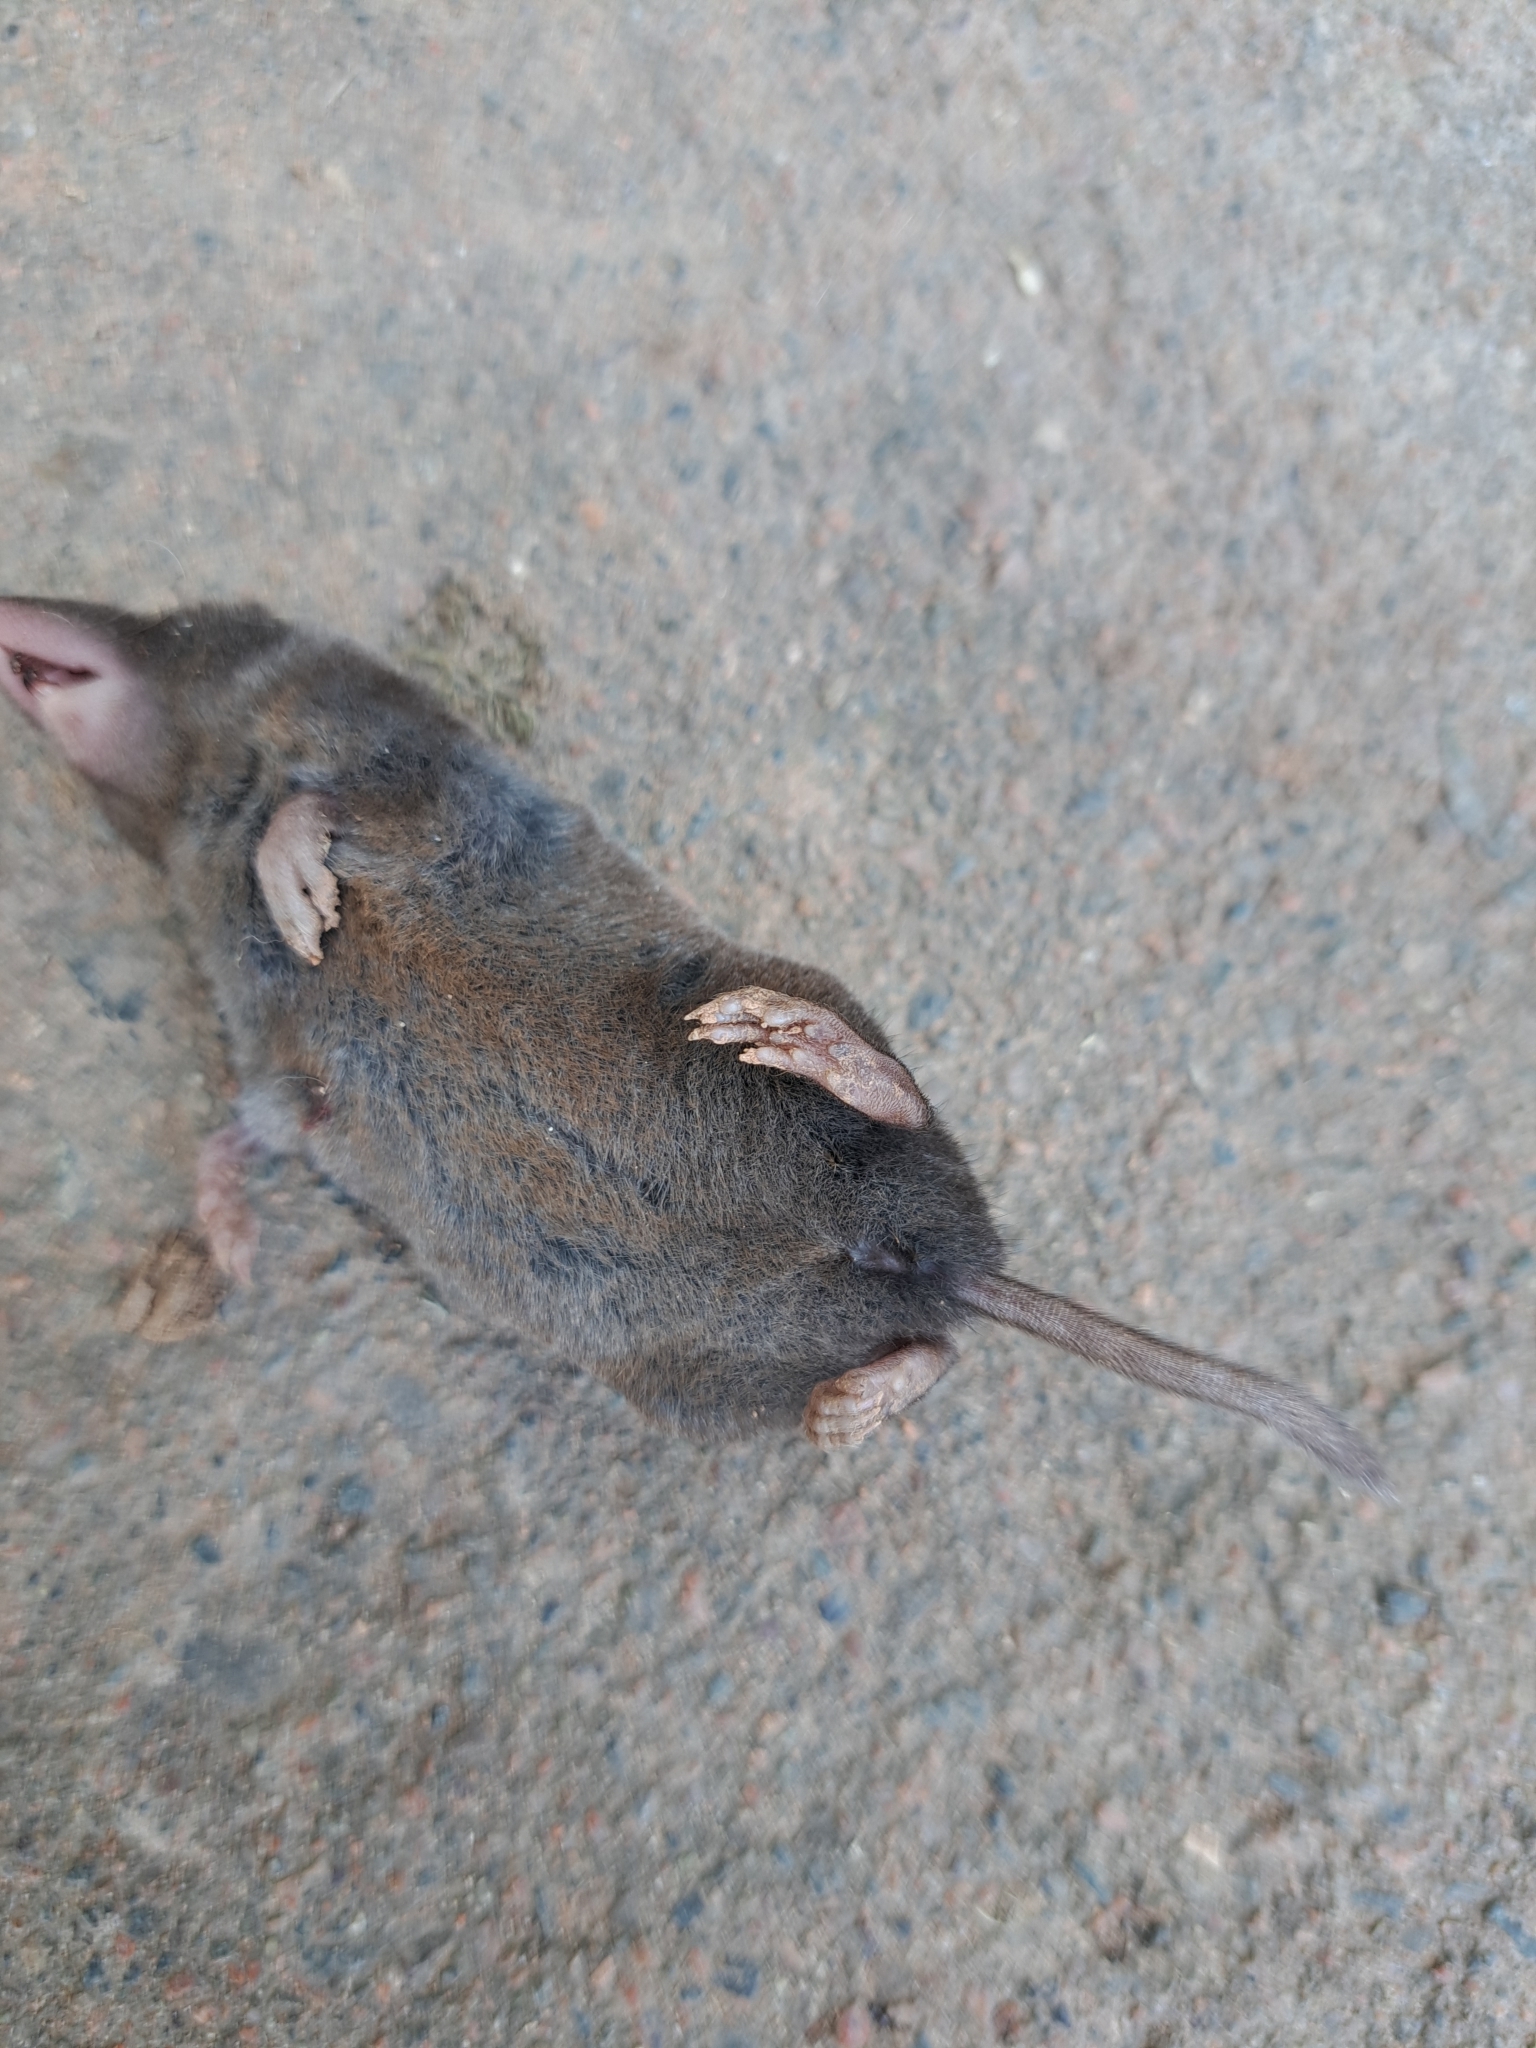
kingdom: Animalia
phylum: Chordata
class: Mammalia
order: Soricomorpha
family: Soricidae
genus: Blarina
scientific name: Blarina brevicauda
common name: Northern short-tailed shrew
